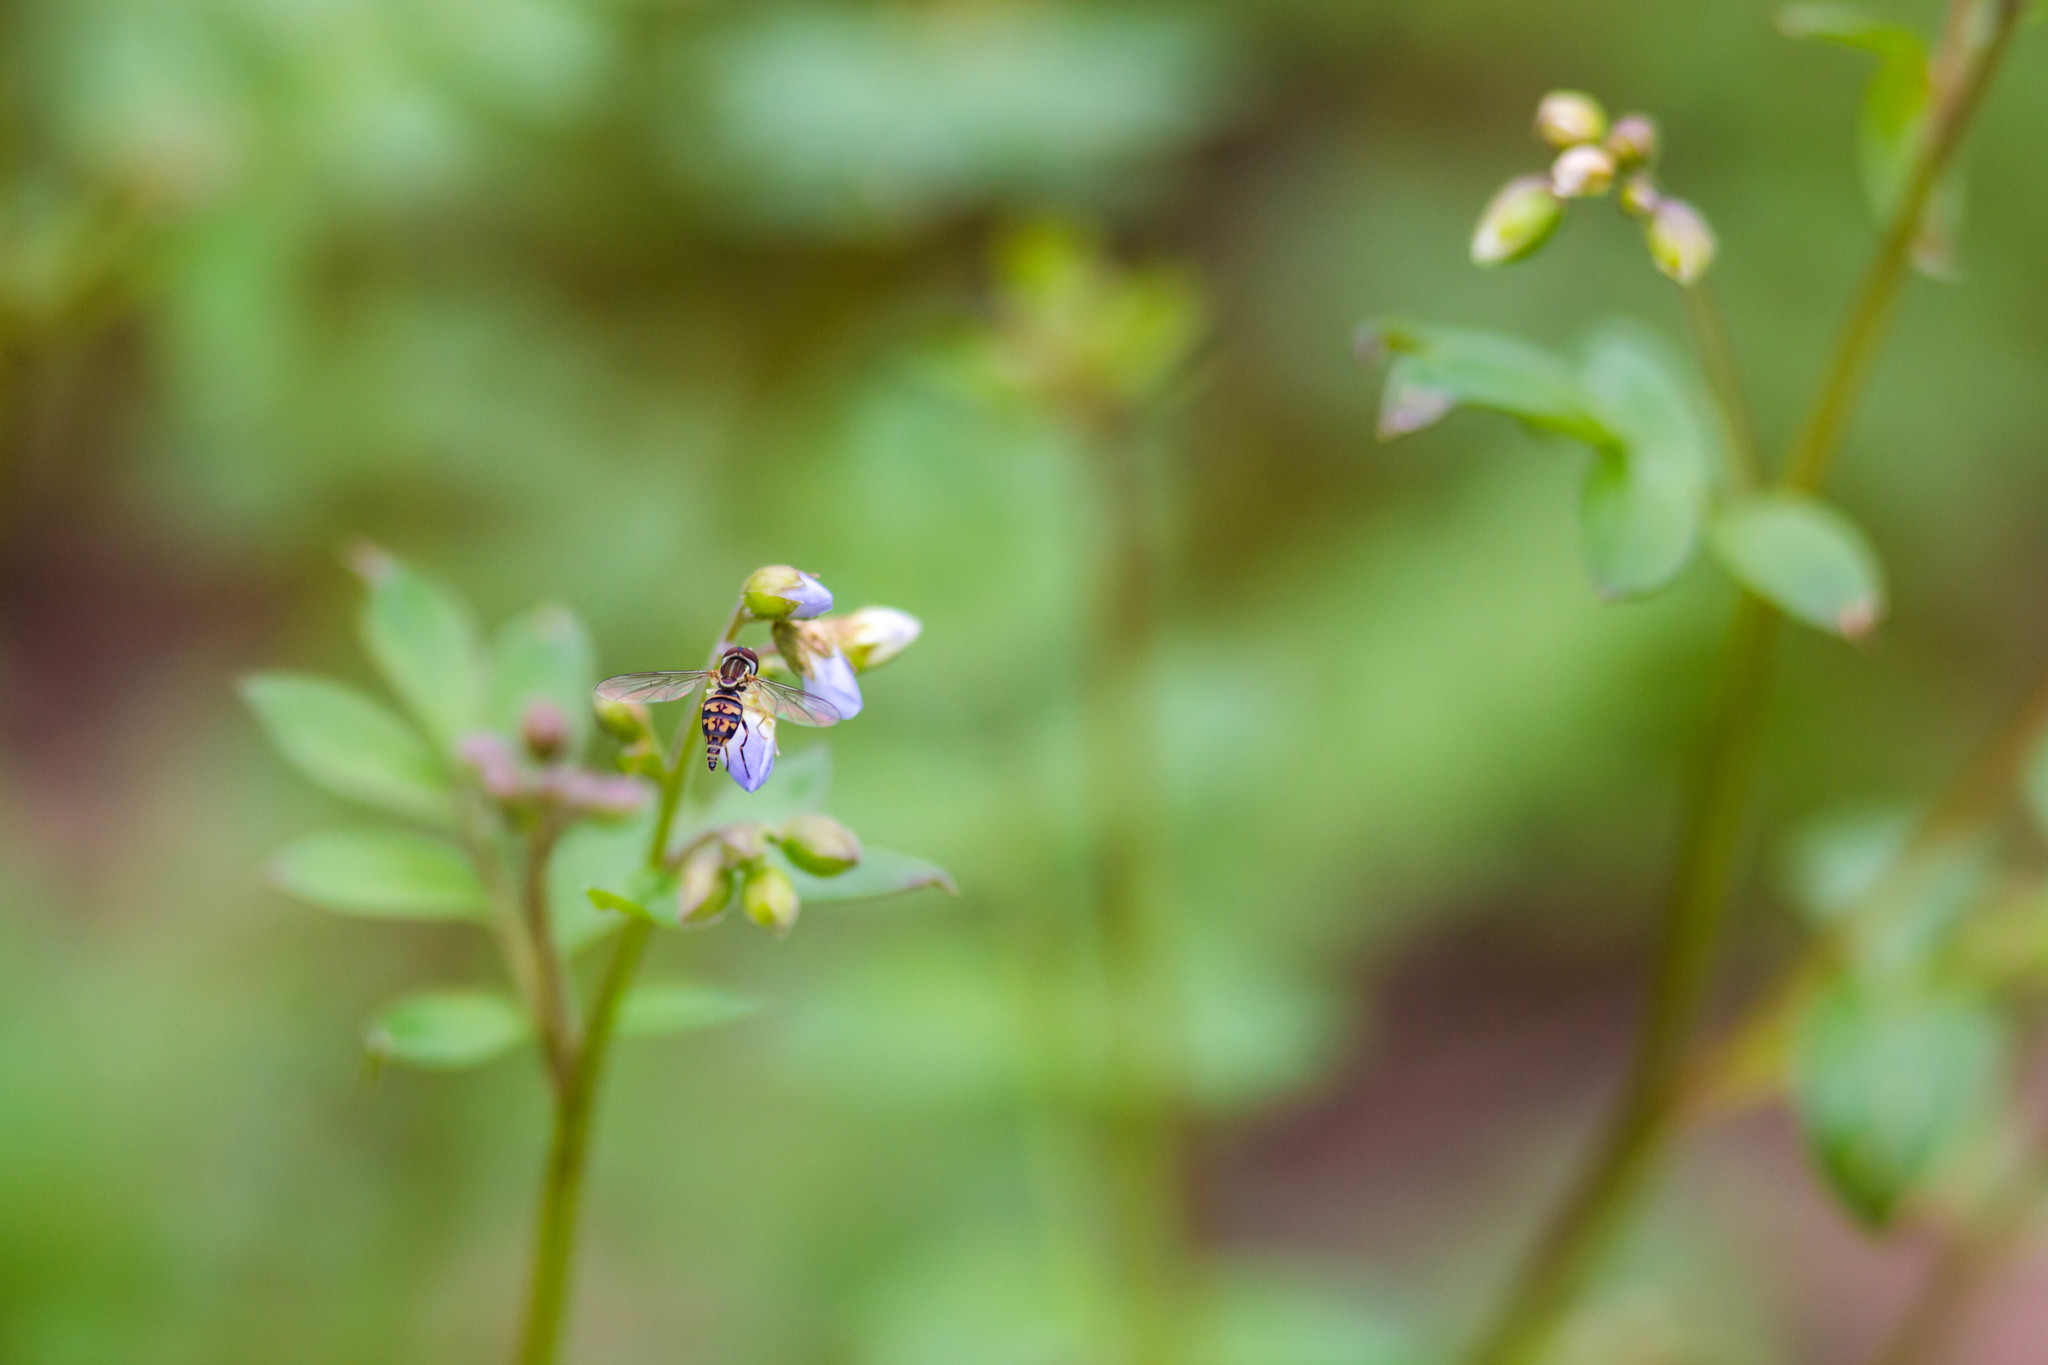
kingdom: Animalia
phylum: Arthropoda
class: Insecta
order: Diptera
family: Syrphidae
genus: Toxomerus
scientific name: Toxomerus geminatus
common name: Eastern calligrapher
